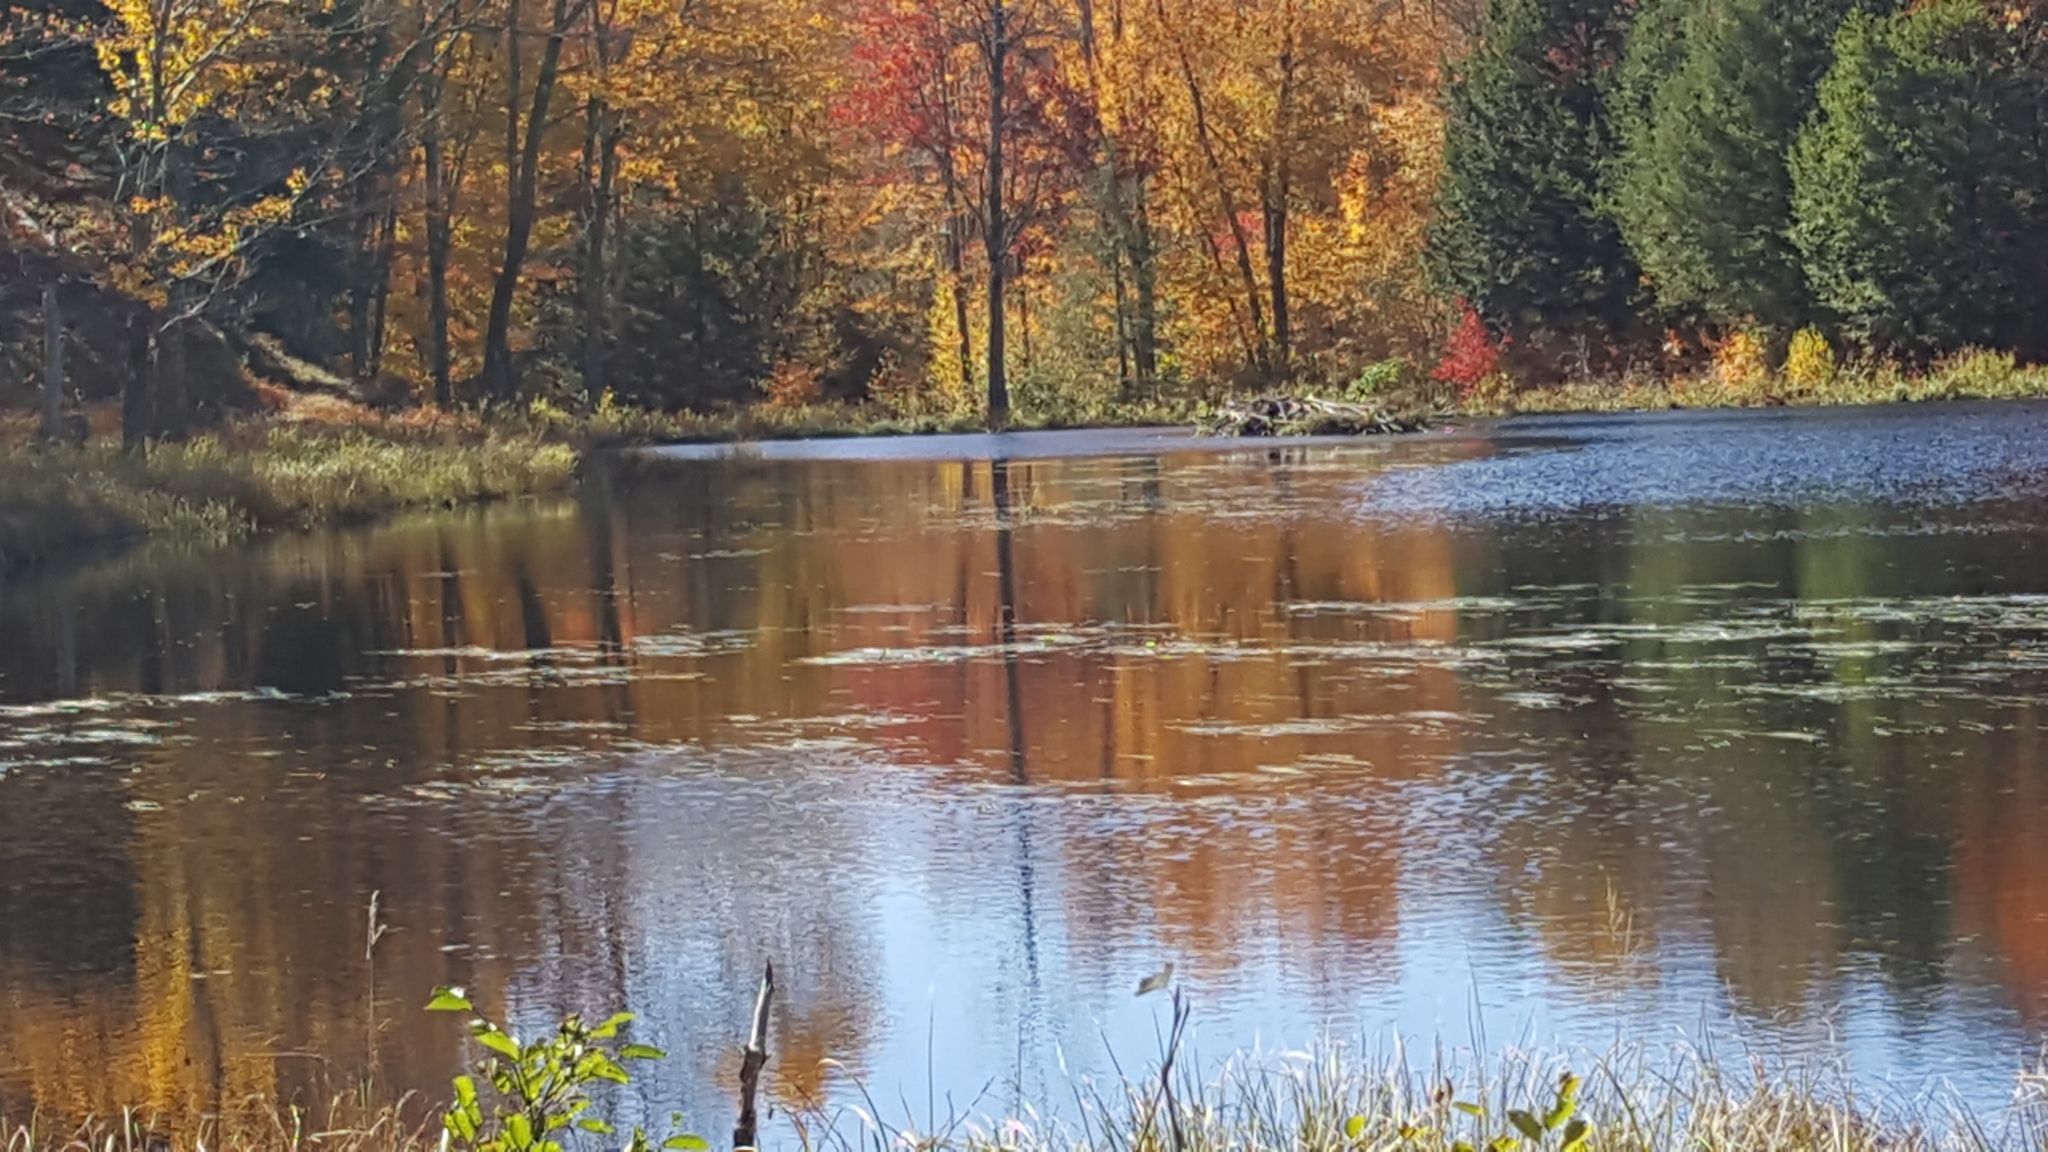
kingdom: Animalia
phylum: Chordata
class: Mammalia
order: Rodentia
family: Castoridae
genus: Castor
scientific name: Castor canadensis
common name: American beaver
